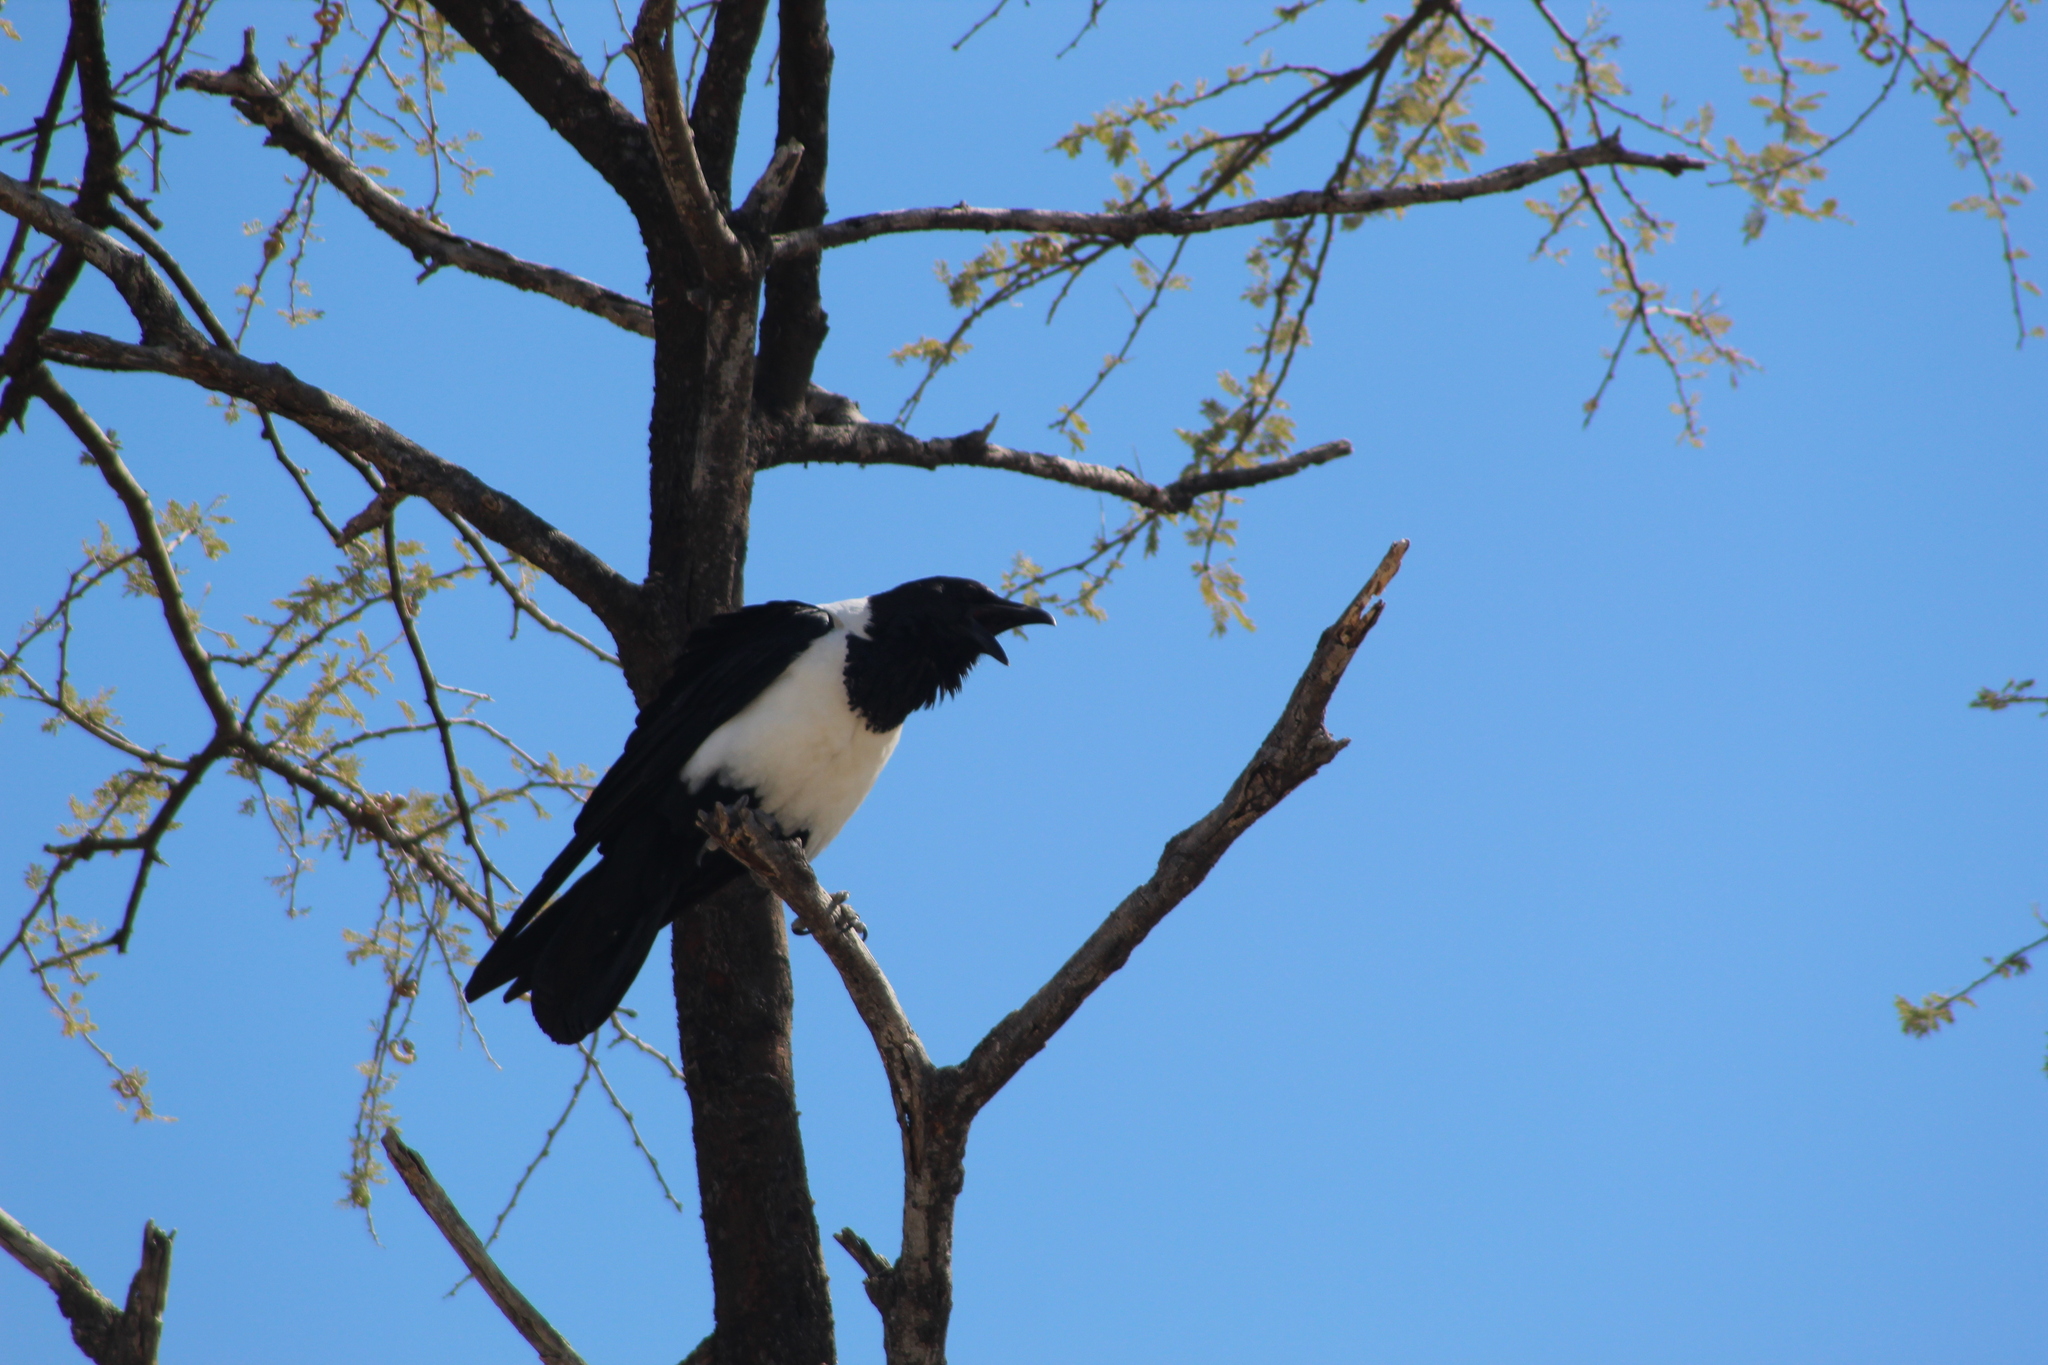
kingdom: Animalia
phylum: Chordata
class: Aves
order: Passeriformes
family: Corvidae
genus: Corvus
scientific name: Corvus albus
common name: Pied crow
